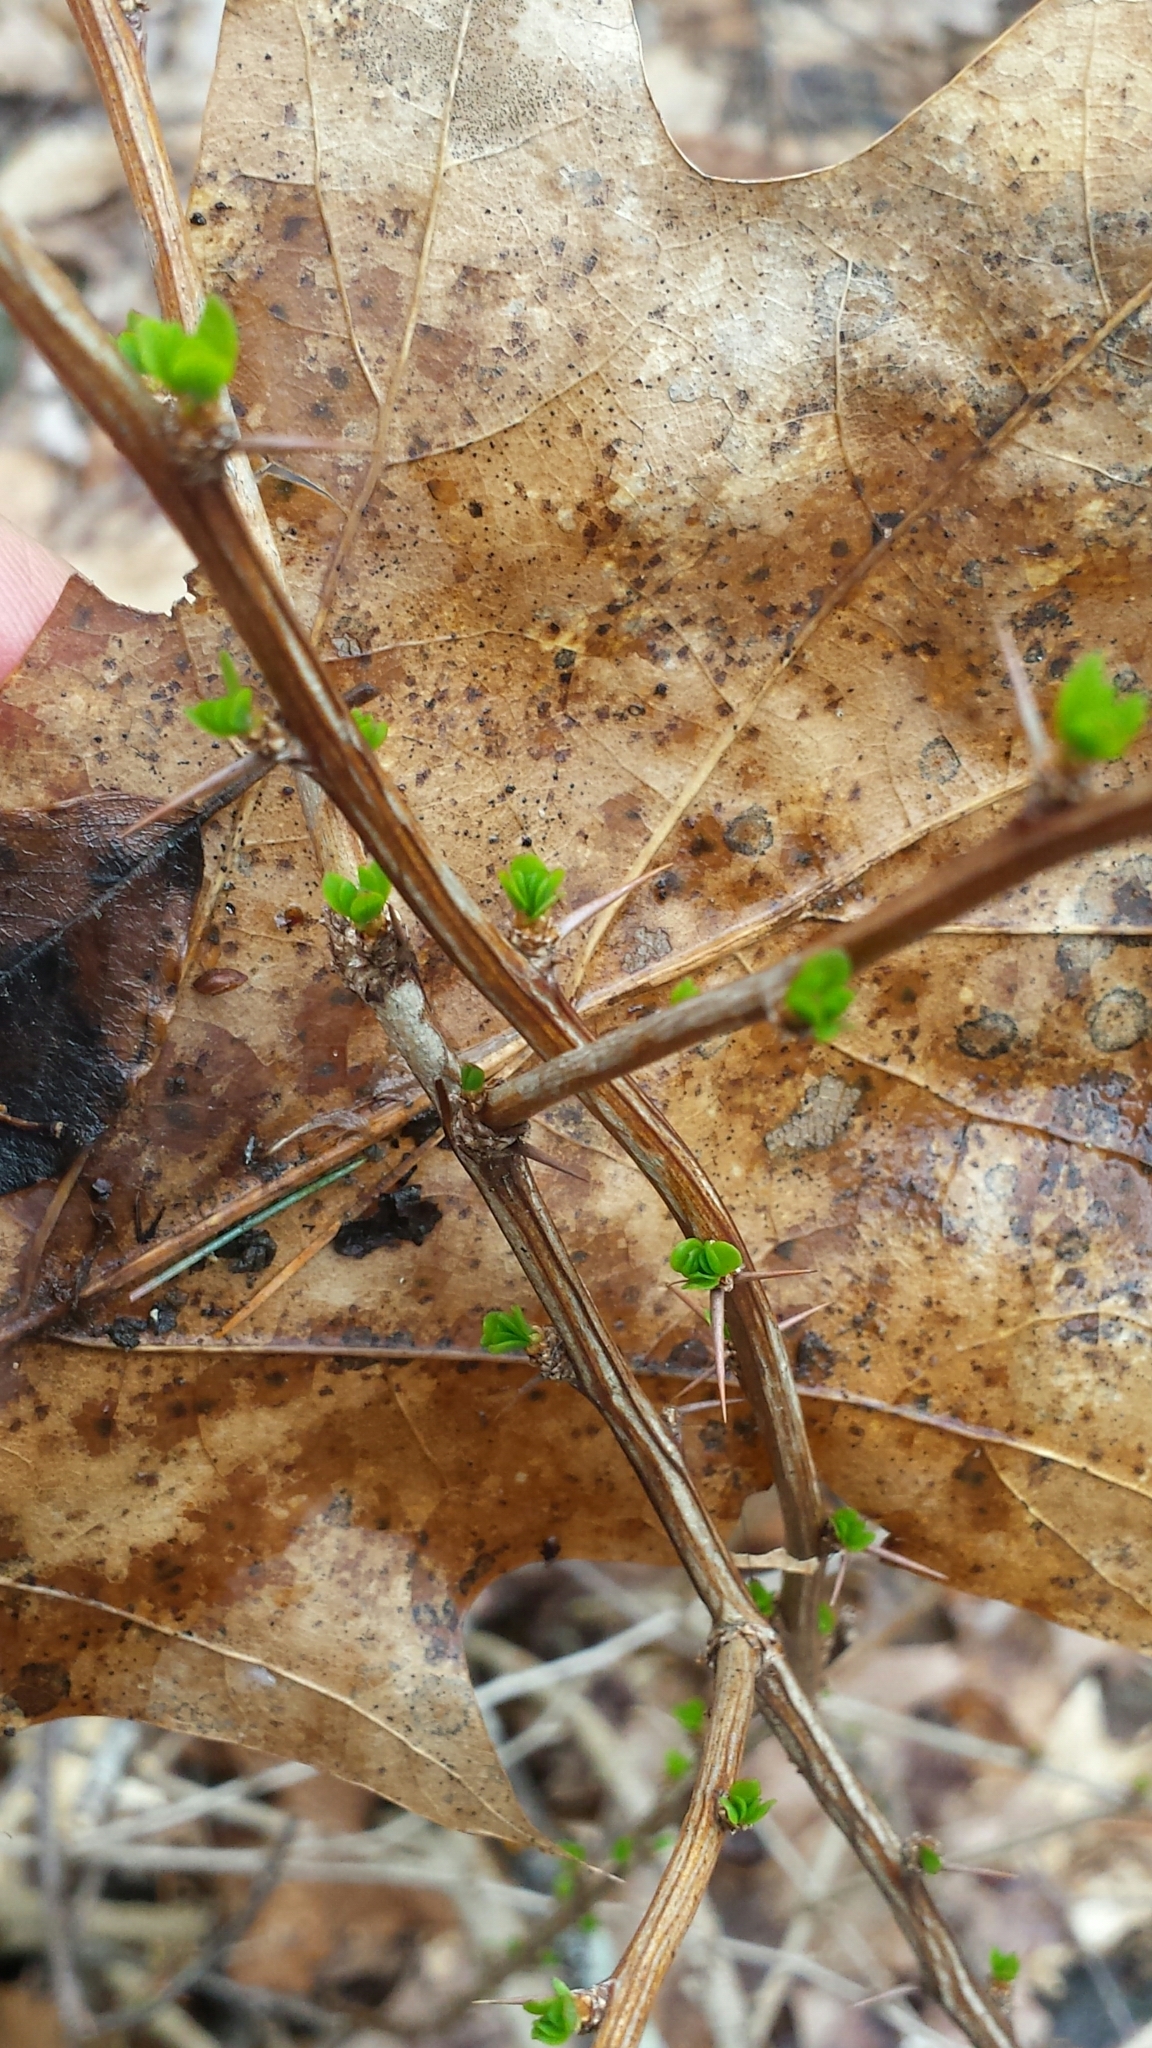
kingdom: Plantae
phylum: Tracheophyta
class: Magnoliopsida
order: Ranunculales
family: Berberidaceae
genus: Berberis
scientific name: Berberis thunbergii
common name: Japanese barberry
